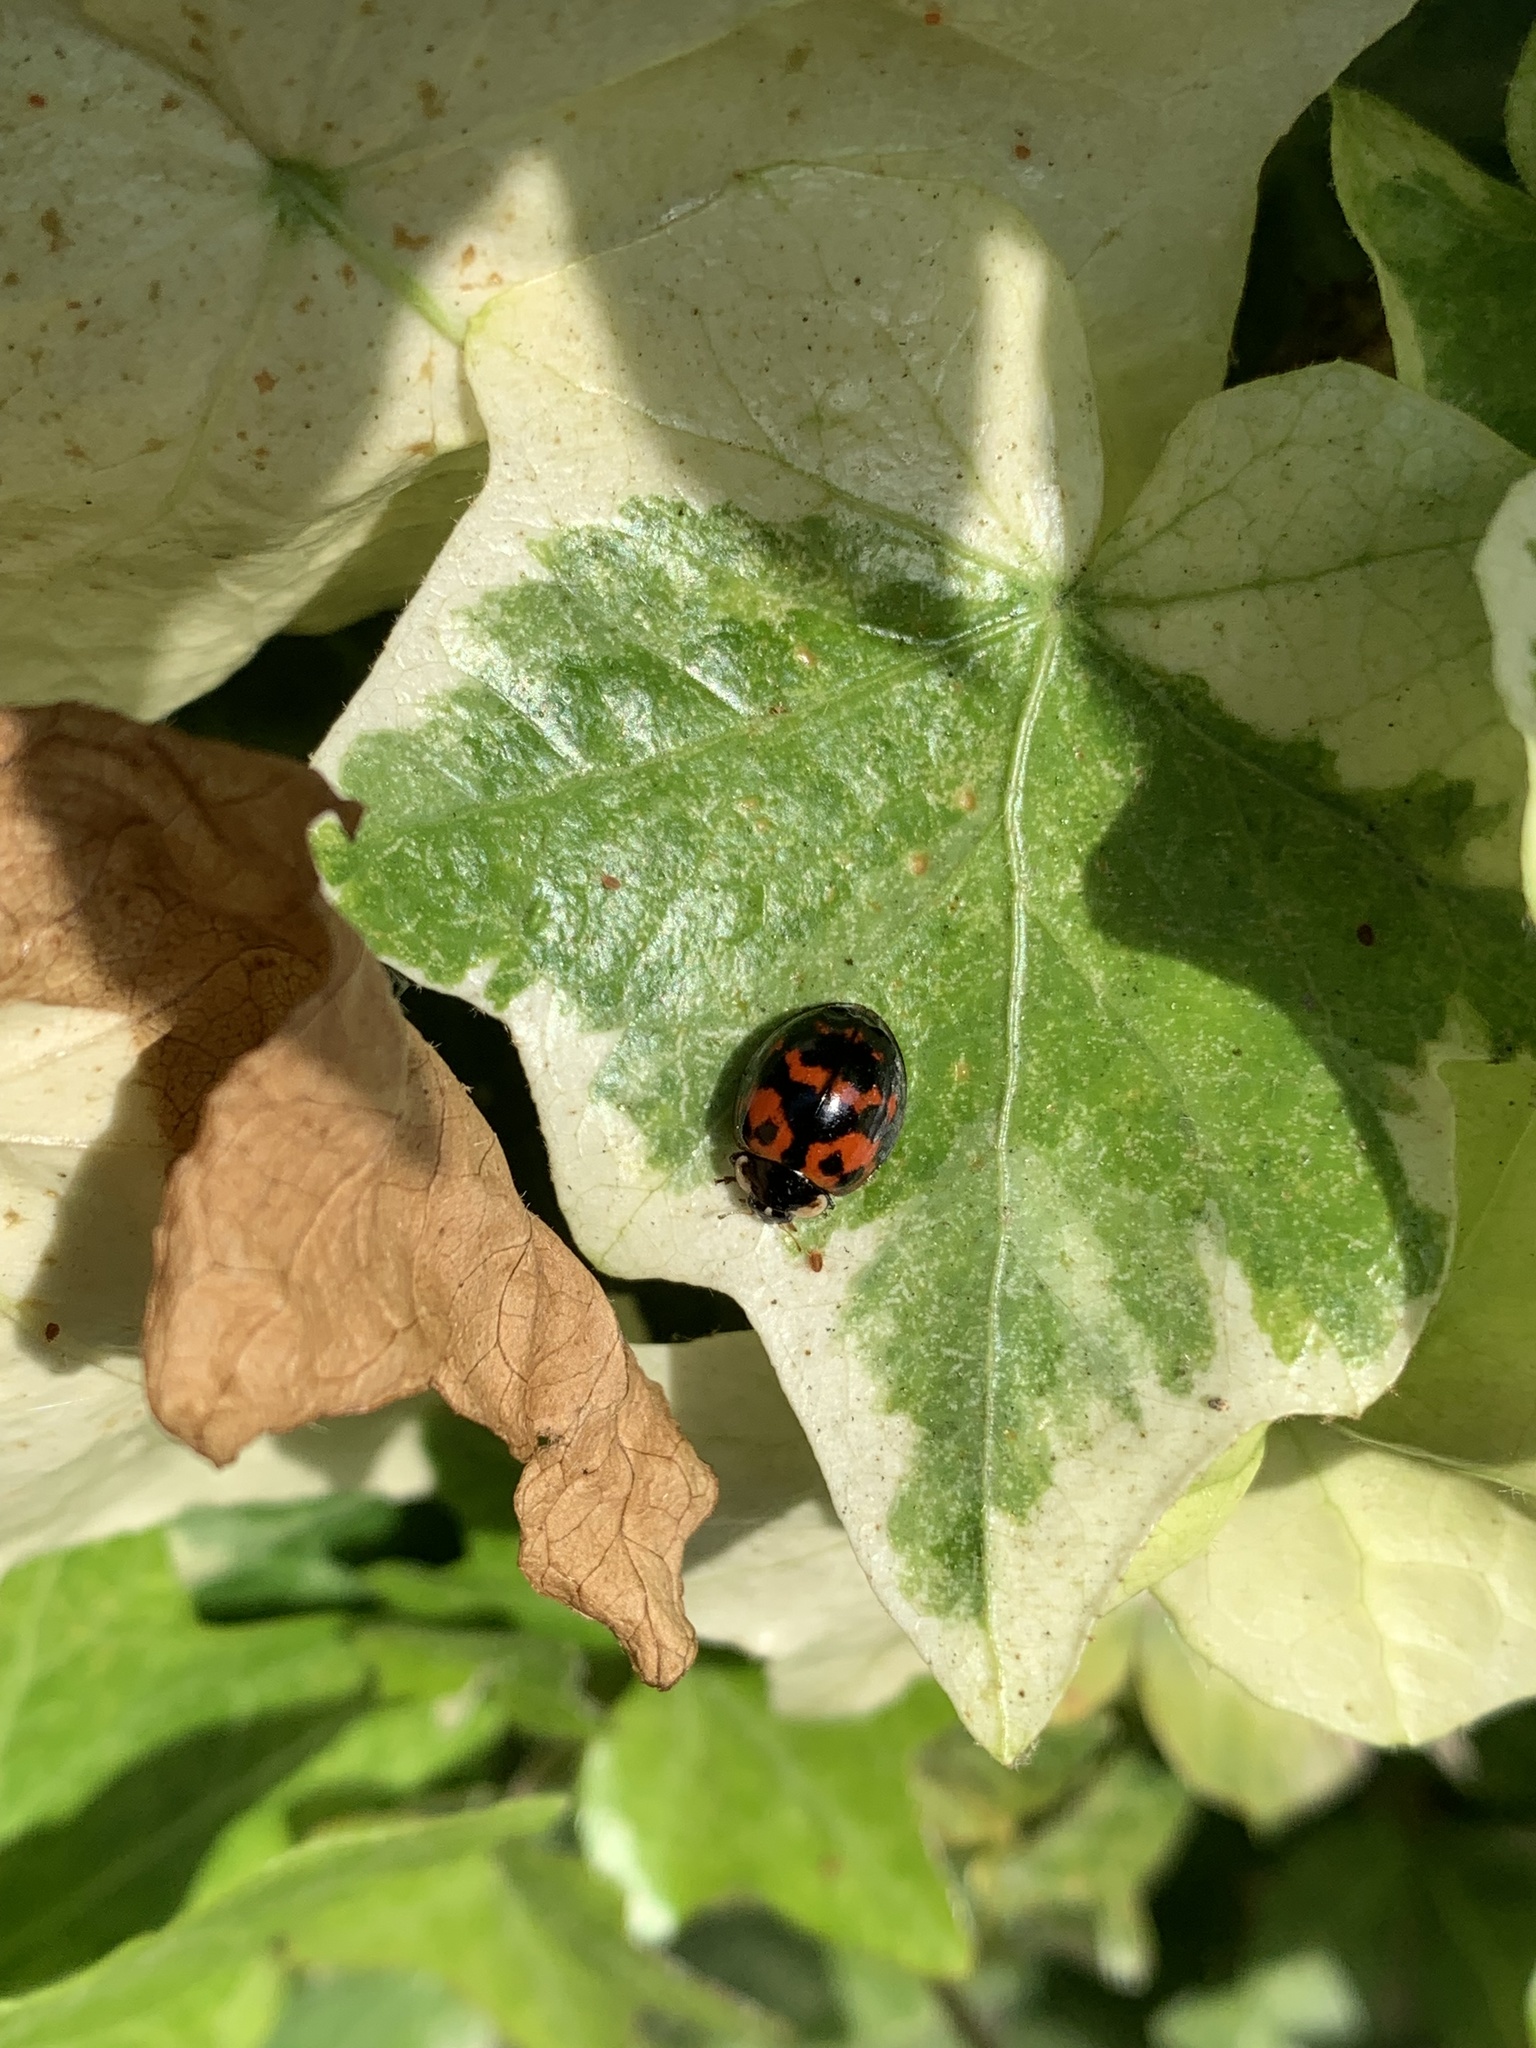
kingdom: Animalia
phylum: Arthropoda
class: Insecta
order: Coleoptera
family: Coccinellidae
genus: Harmonia
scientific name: Harmonia axyridis
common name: Harlequin ladybird
